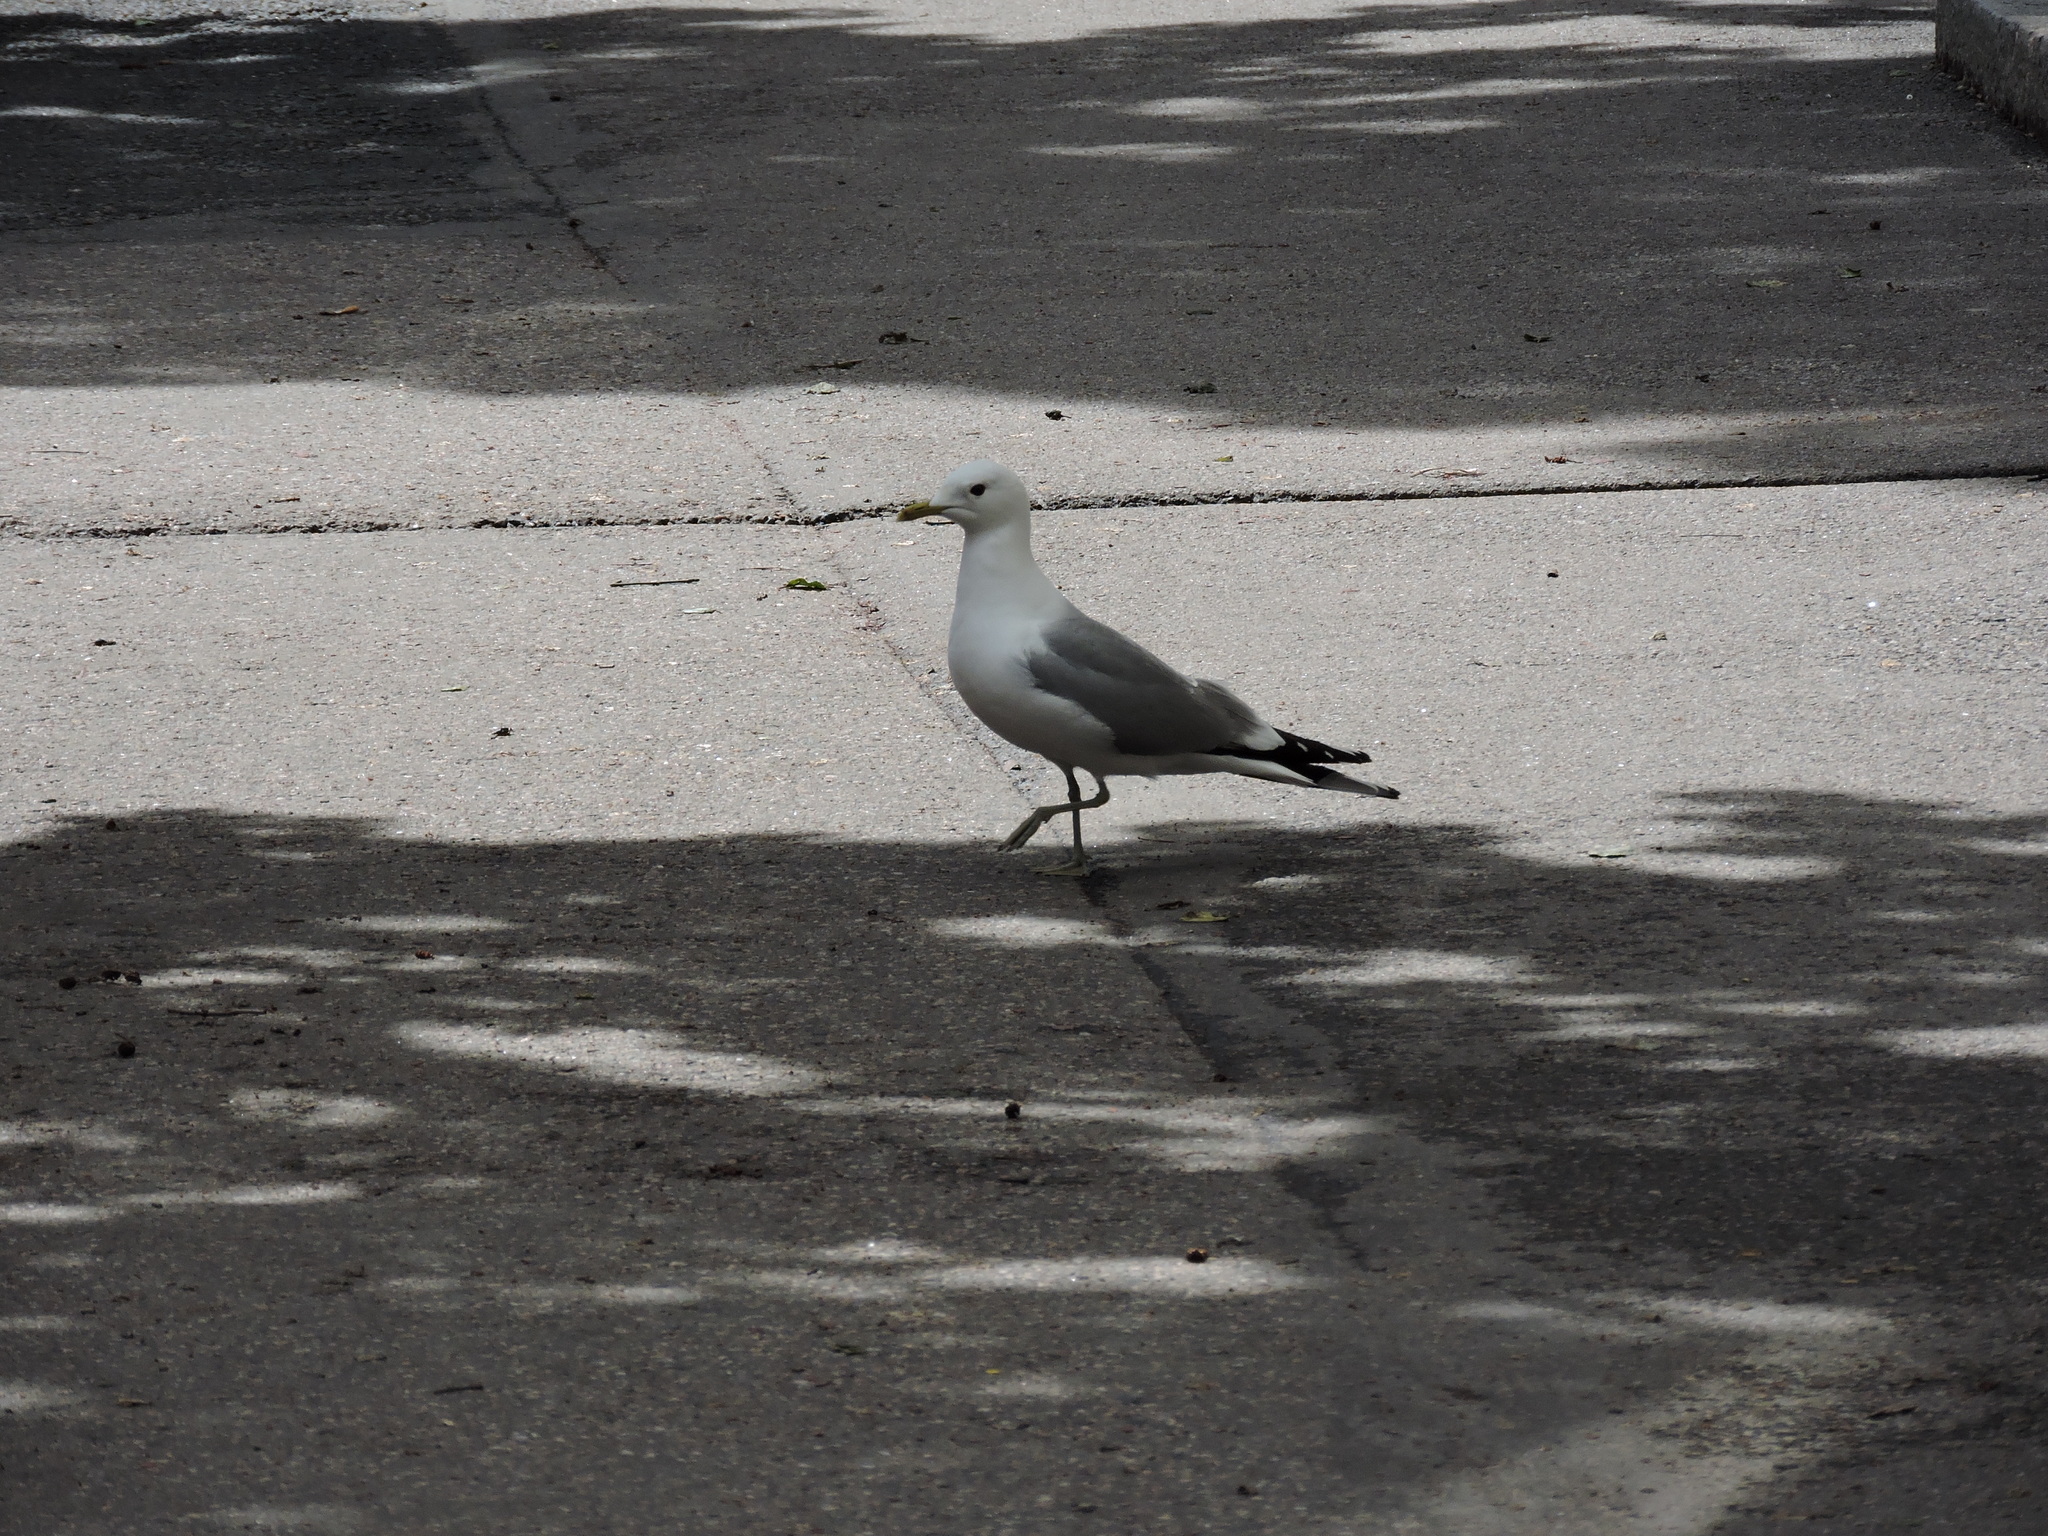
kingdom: Animalia
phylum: Chordata
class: Aves
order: Charadriiformes
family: Laridae
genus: Larus
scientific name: Larus canus
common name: Mew gull
